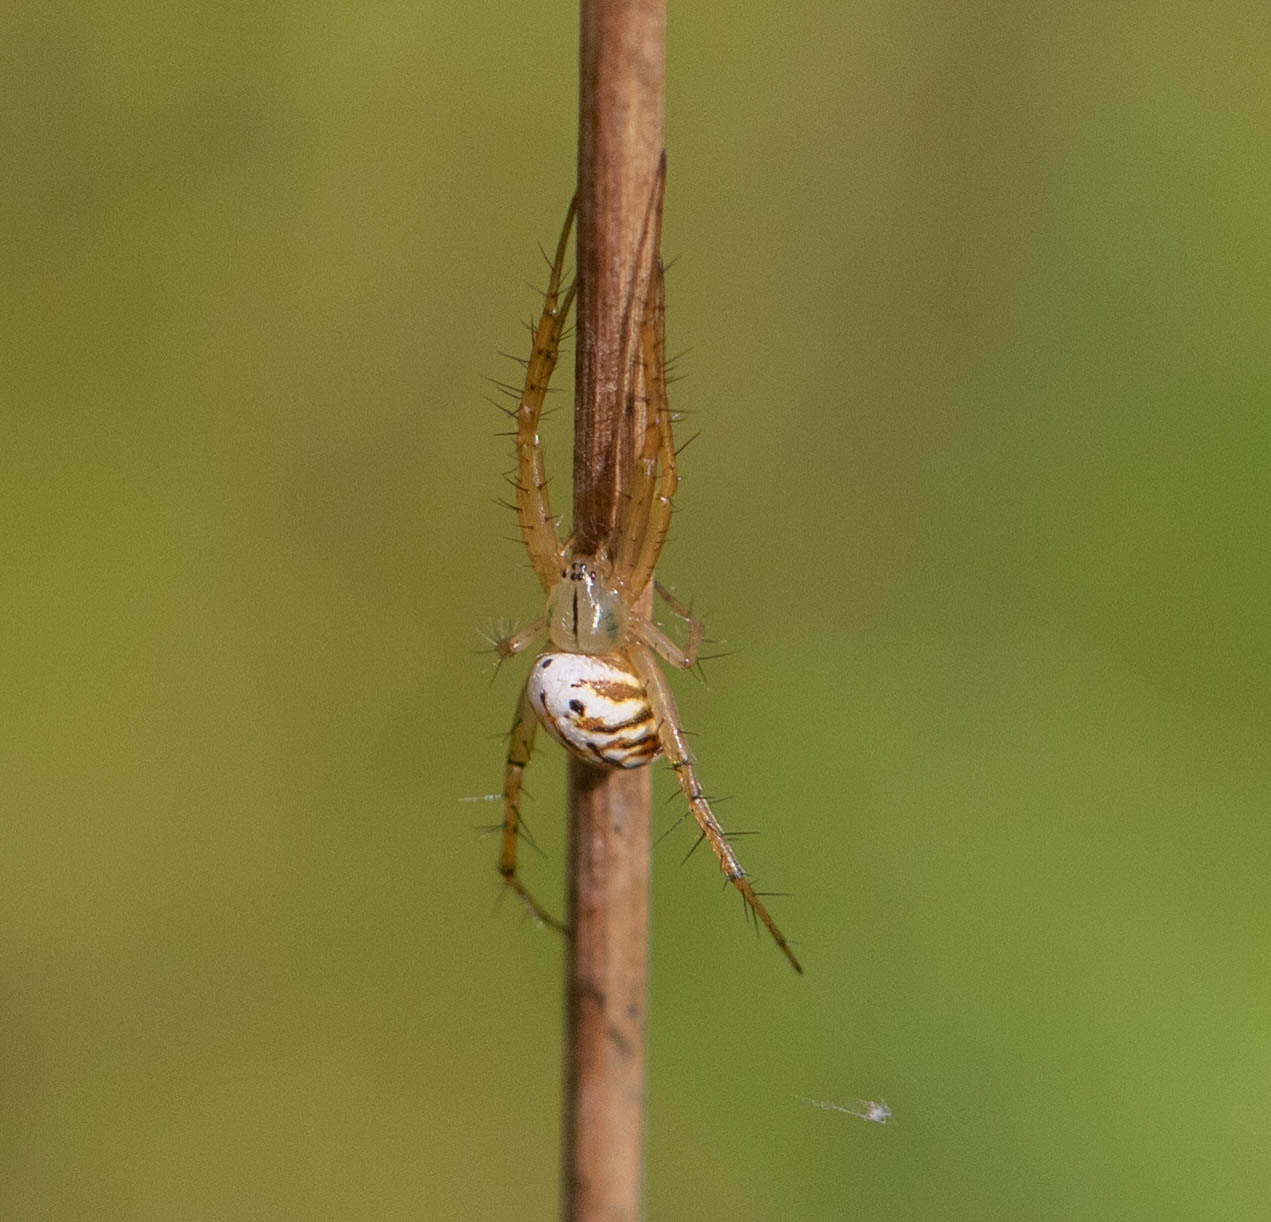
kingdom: Animalia
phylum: Arthropoda
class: Arachnida
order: Araneae
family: Araneidae
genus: Mangora
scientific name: Mangora gibberosa
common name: Lined orbweaver
